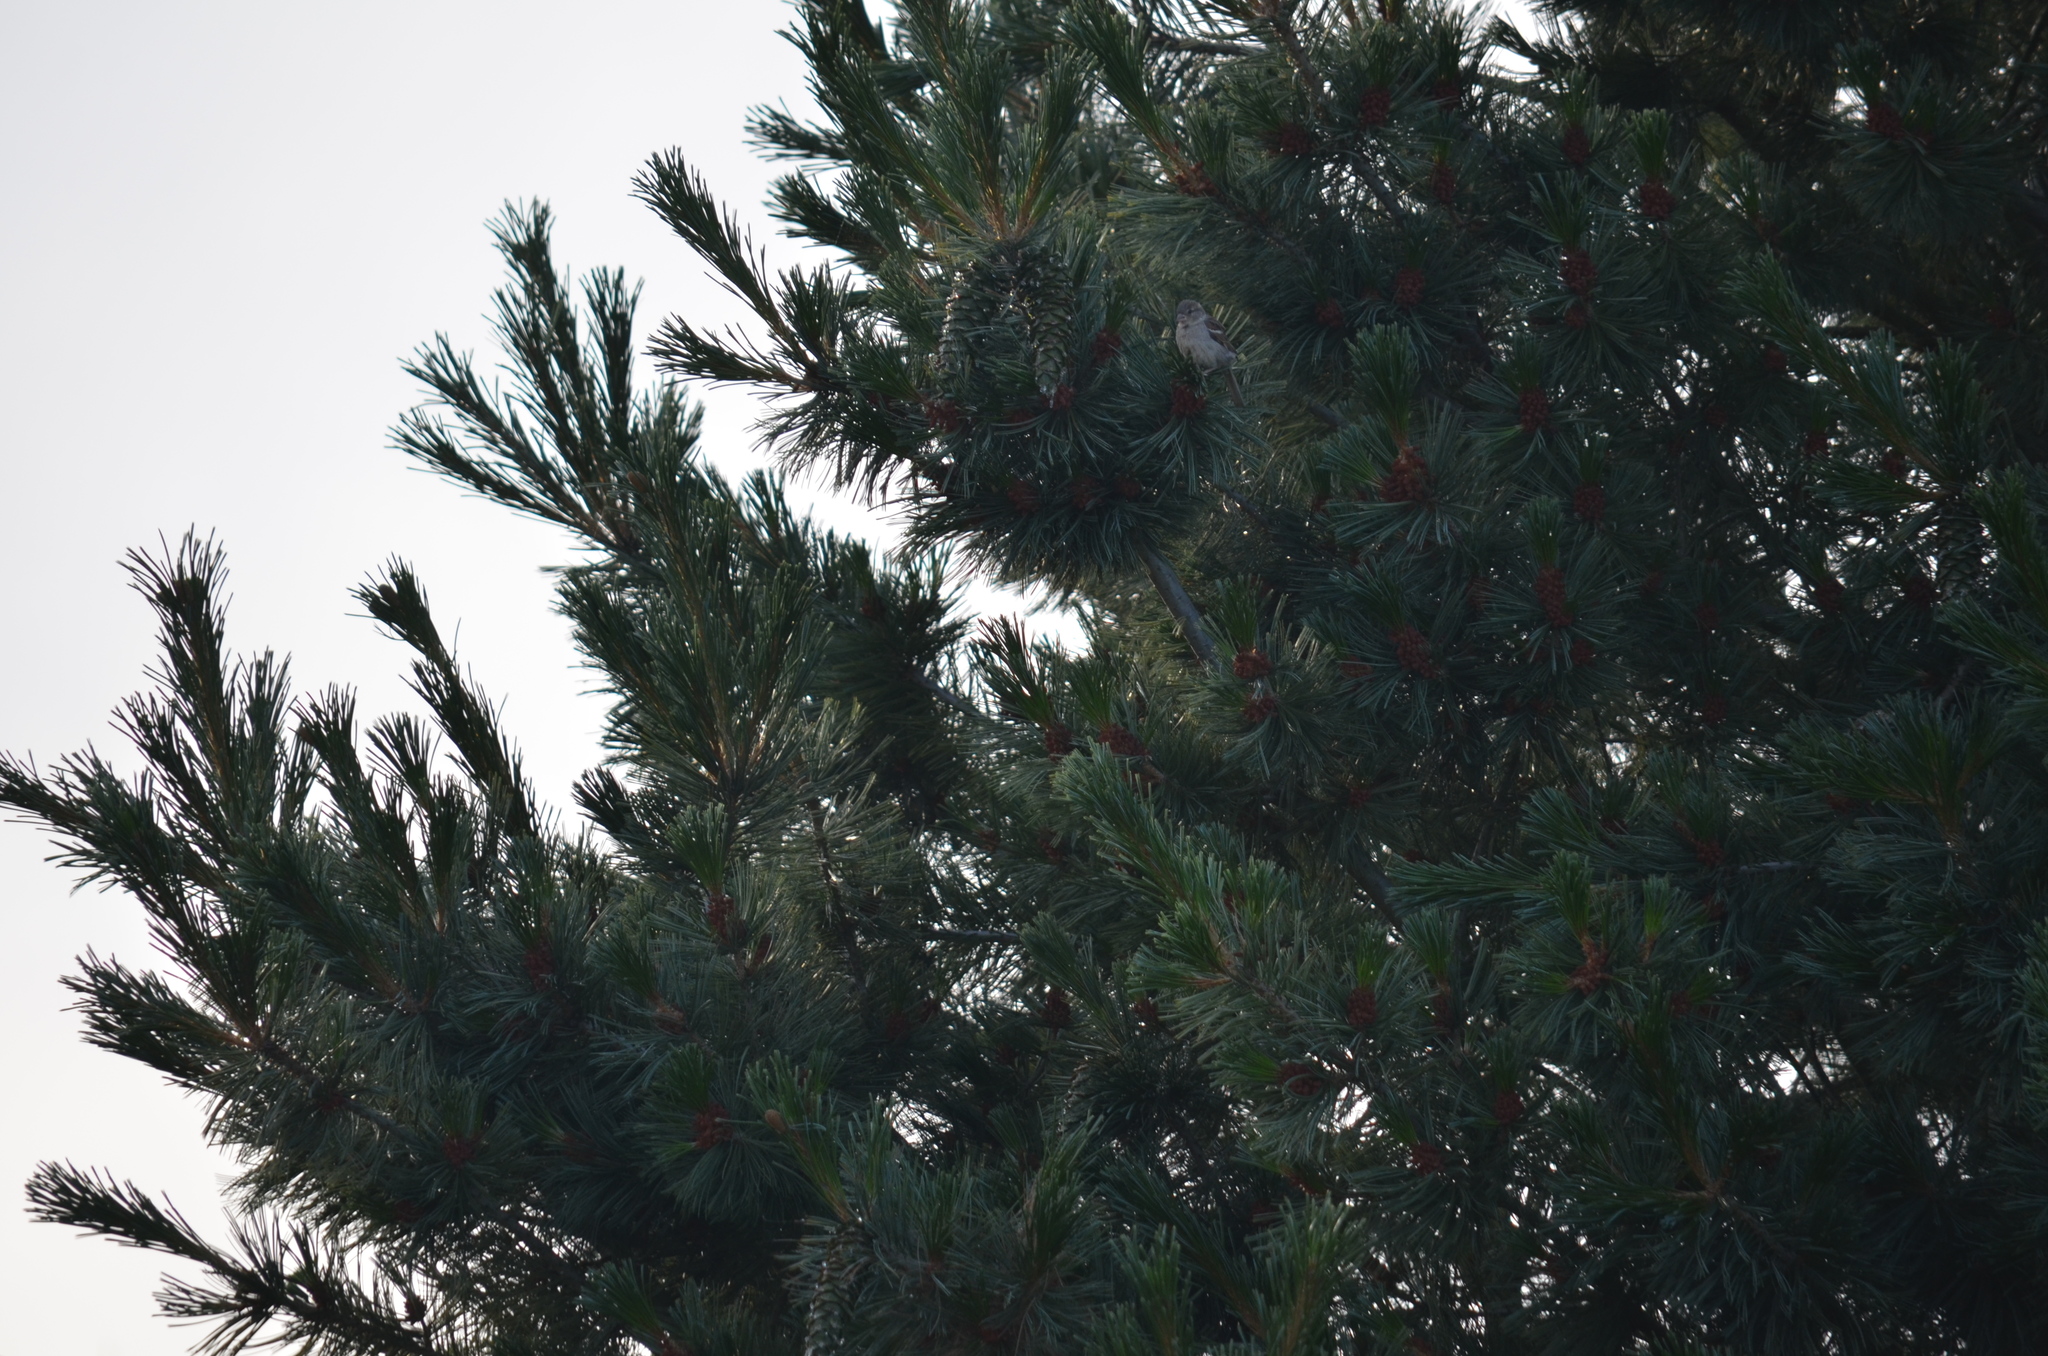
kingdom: Animalia
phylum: Chordata
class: Aves
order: Passeriformes
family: Passeridae
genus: Passer
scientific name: Passer domesticus
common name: House sparrow
